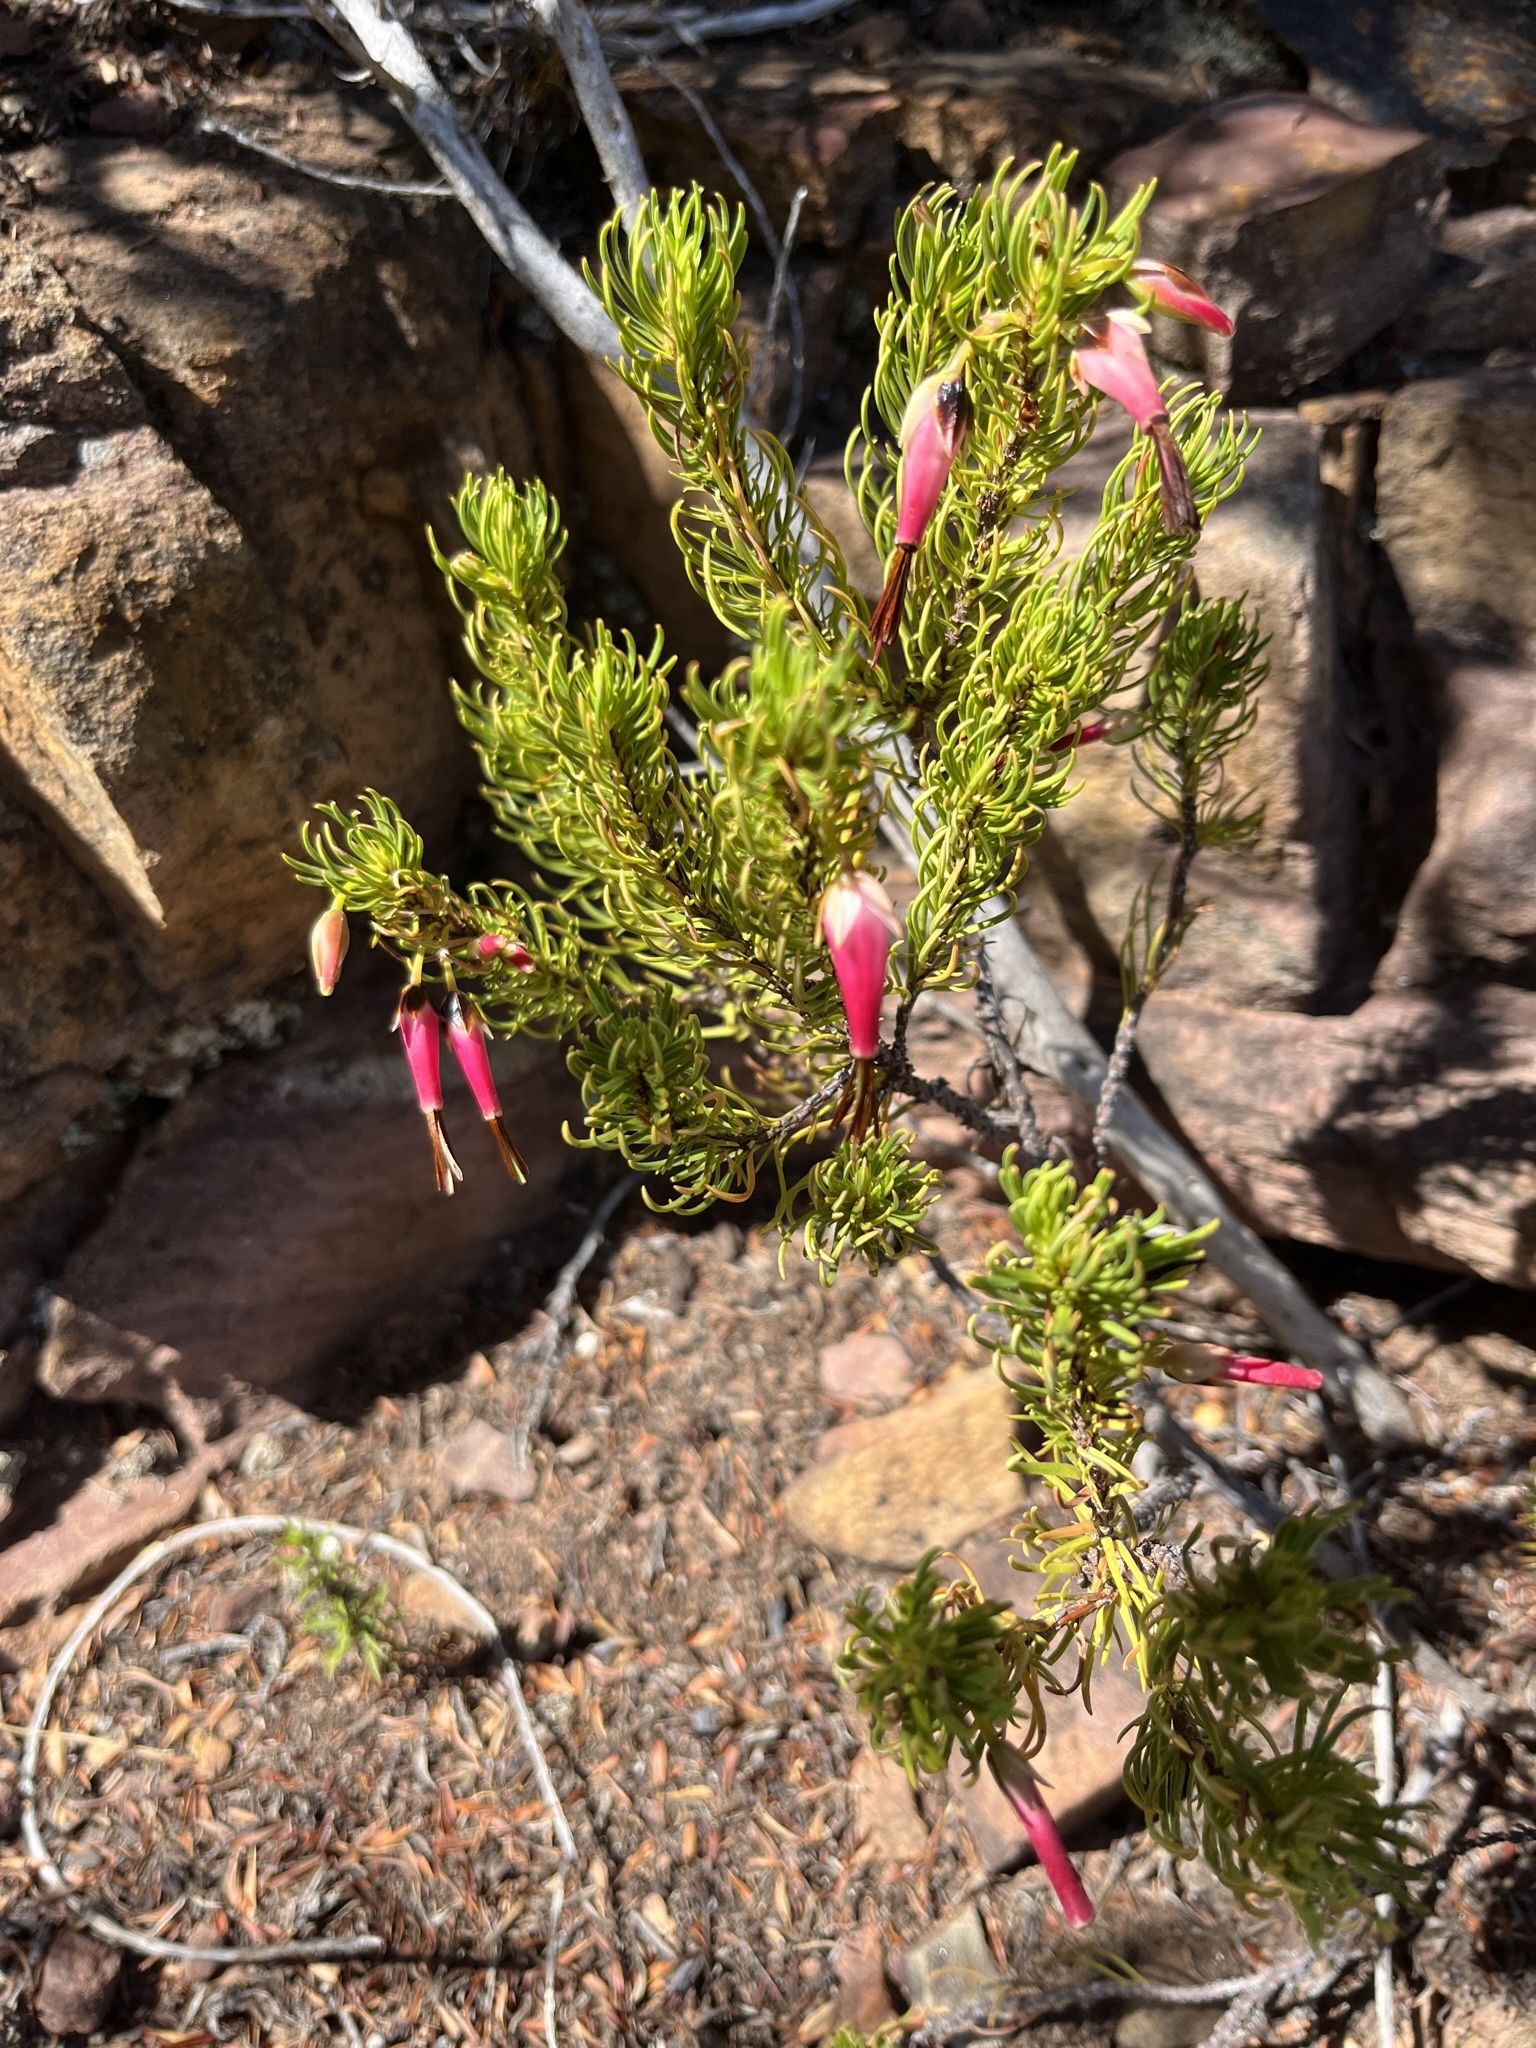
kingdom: Plantae
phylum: Tracheophyta
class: Magnoliopsida
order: Ericales
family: Ericaceae
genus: Erica
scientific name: Erica plukenetii
